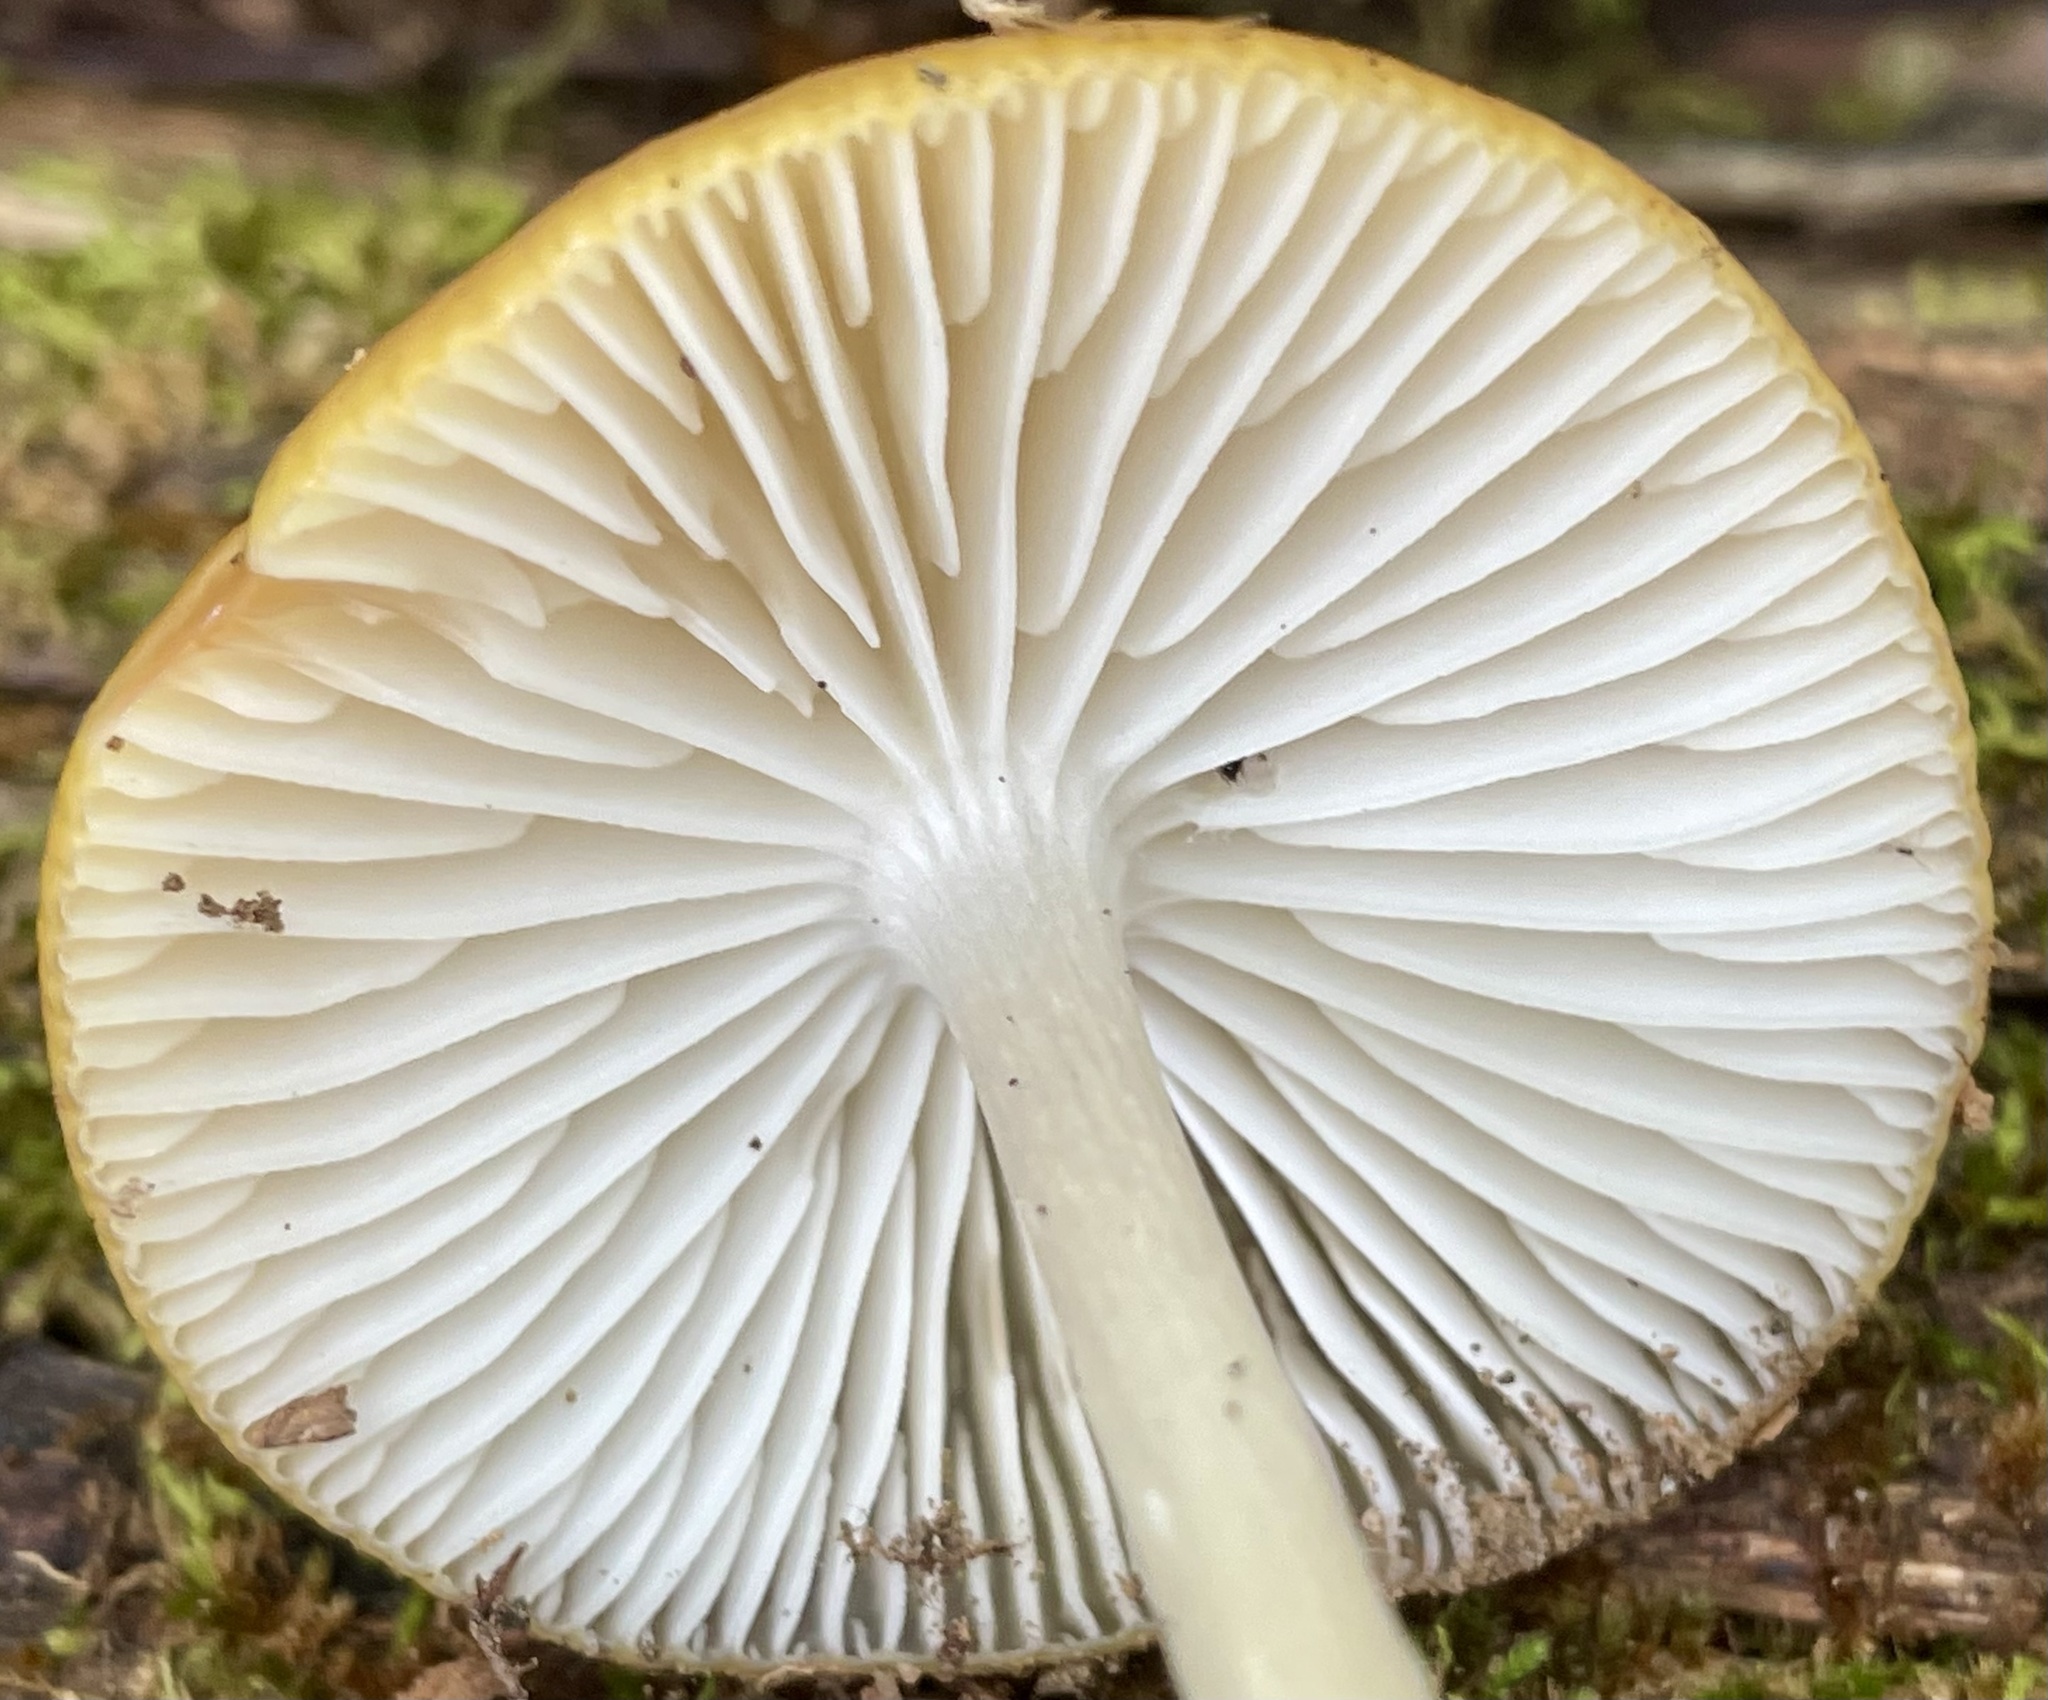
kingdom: Fungi
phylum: Basidiomycota
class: Agaricomycetes
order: Agaricales
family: Physalacriaceae
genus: Hymenopellis
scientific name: Hymenopellis incognita
